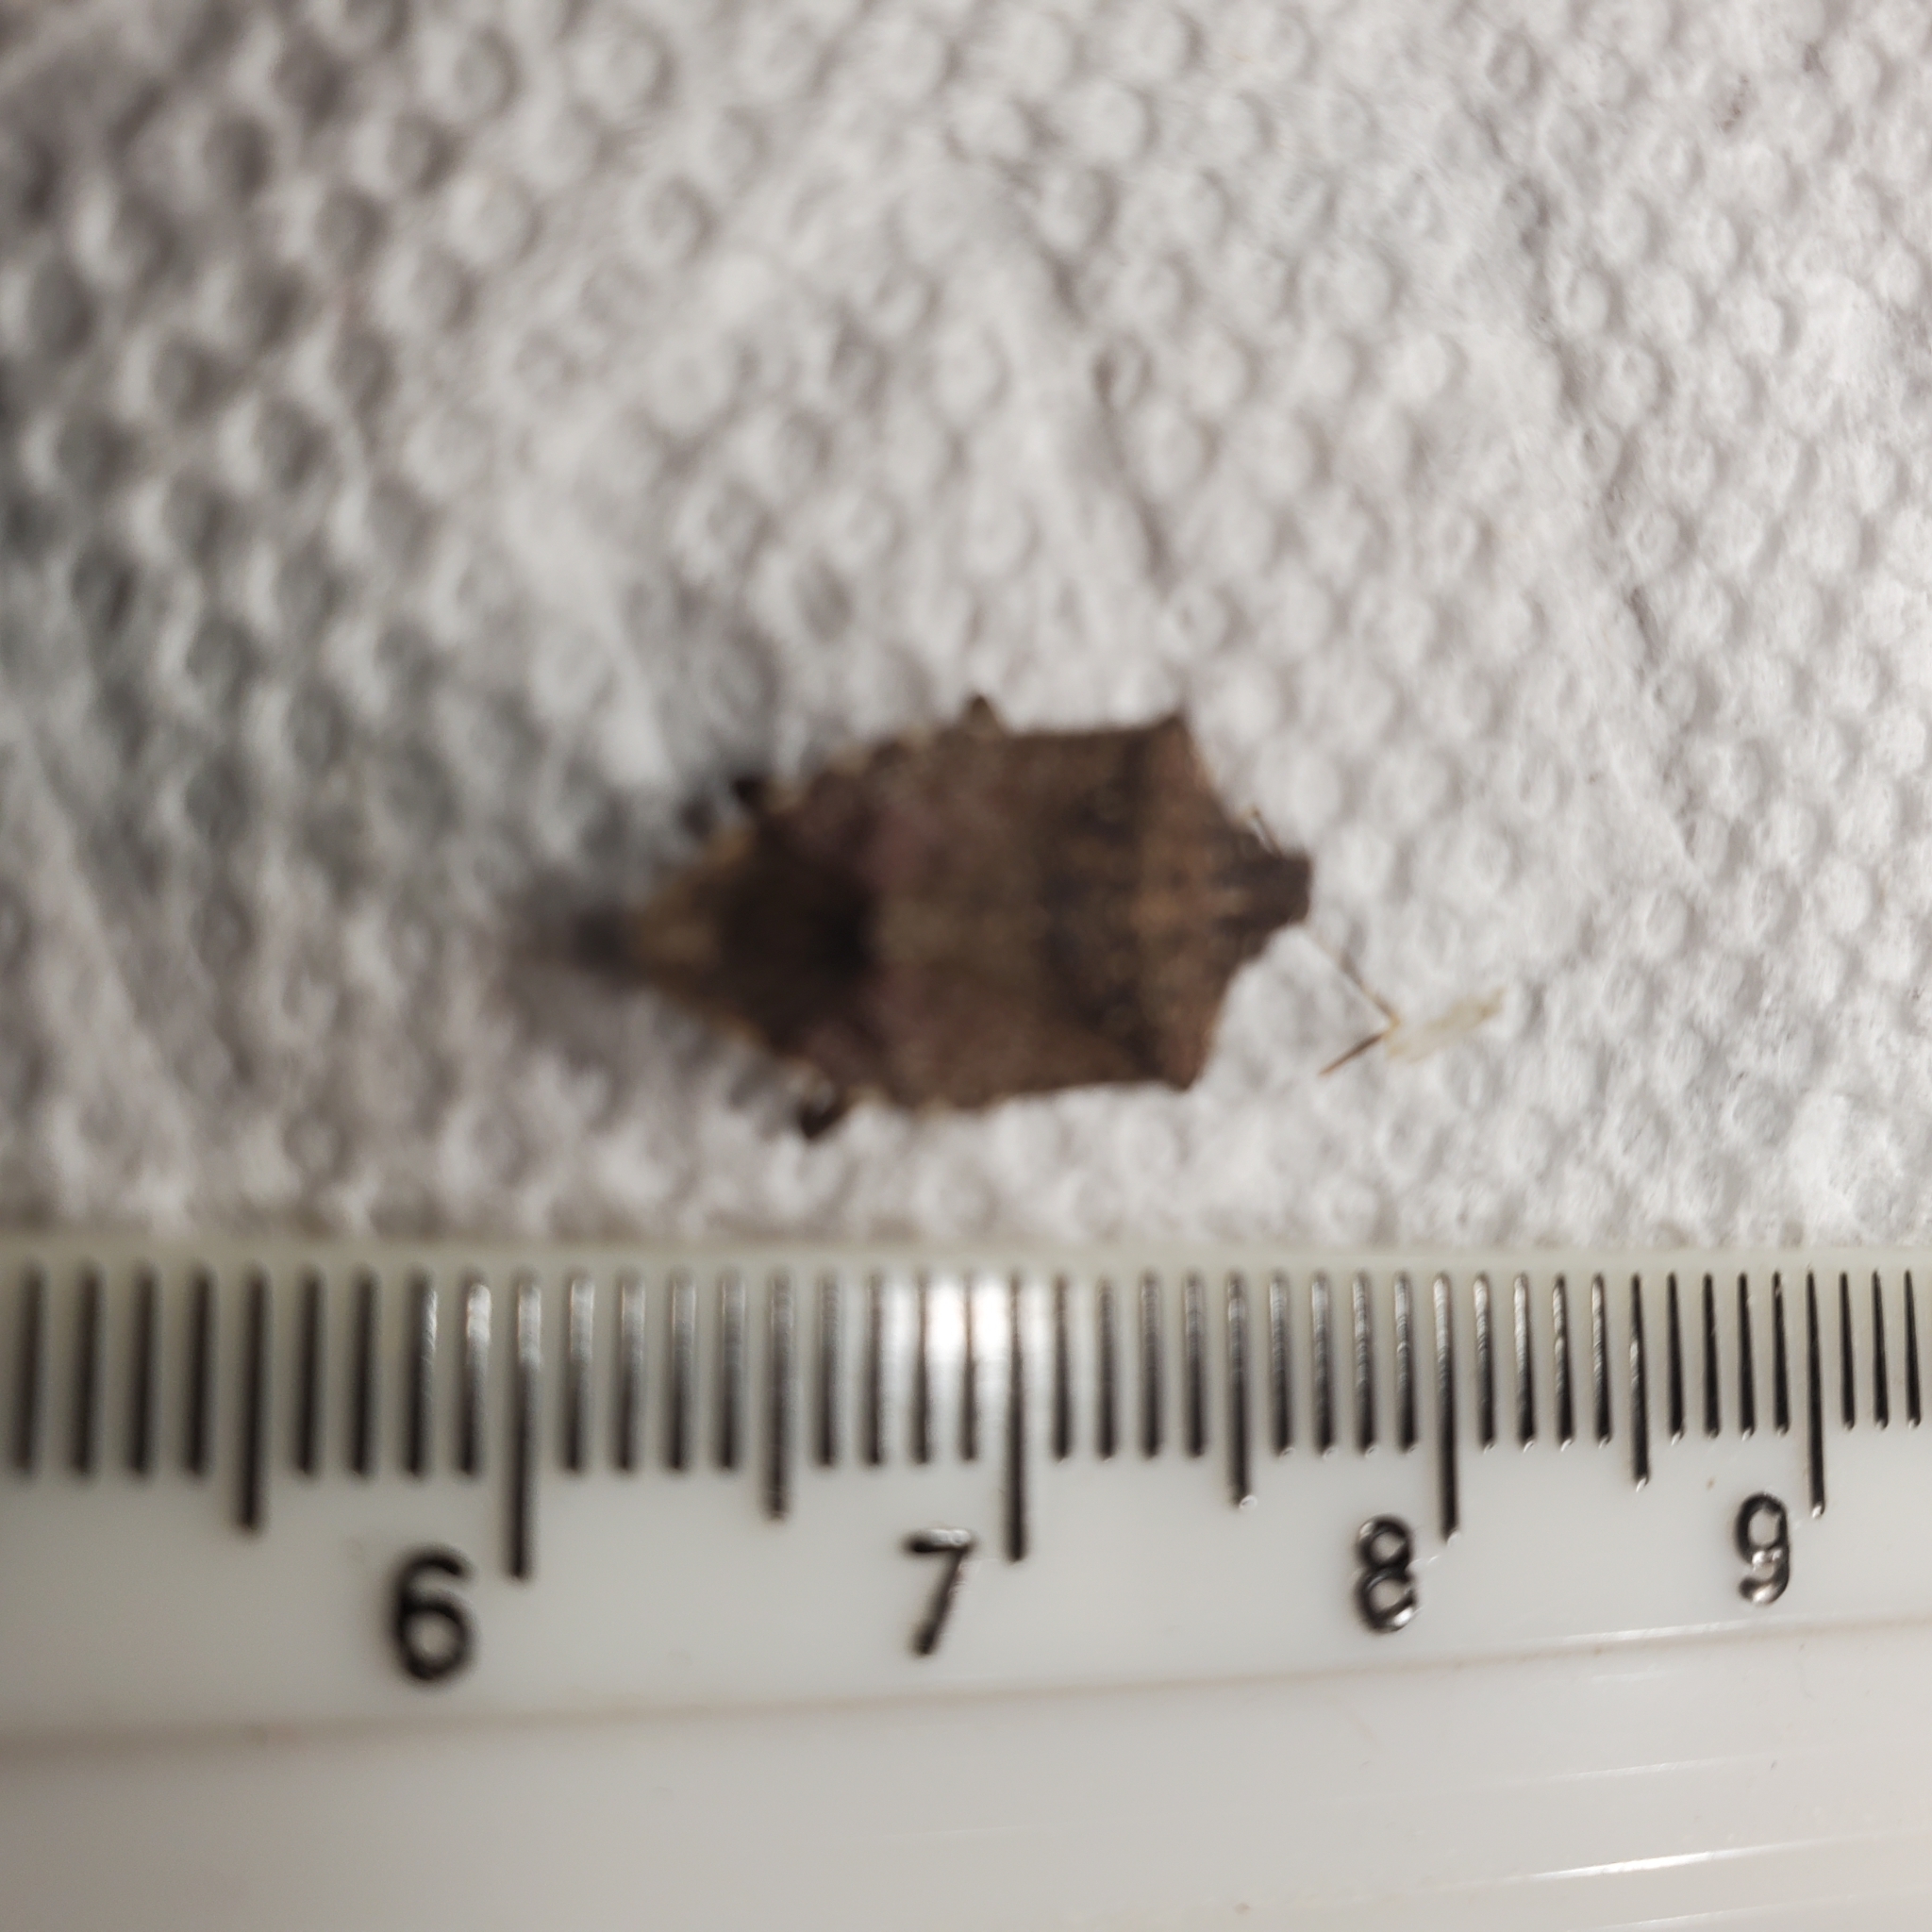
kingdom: Animalia
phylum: Arthropoda
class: Insecta
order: Hemiptera
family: Pentatomidae
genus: Halyomorpha
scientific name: Halyomorpha halys
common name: Brown marmorated stink bug
